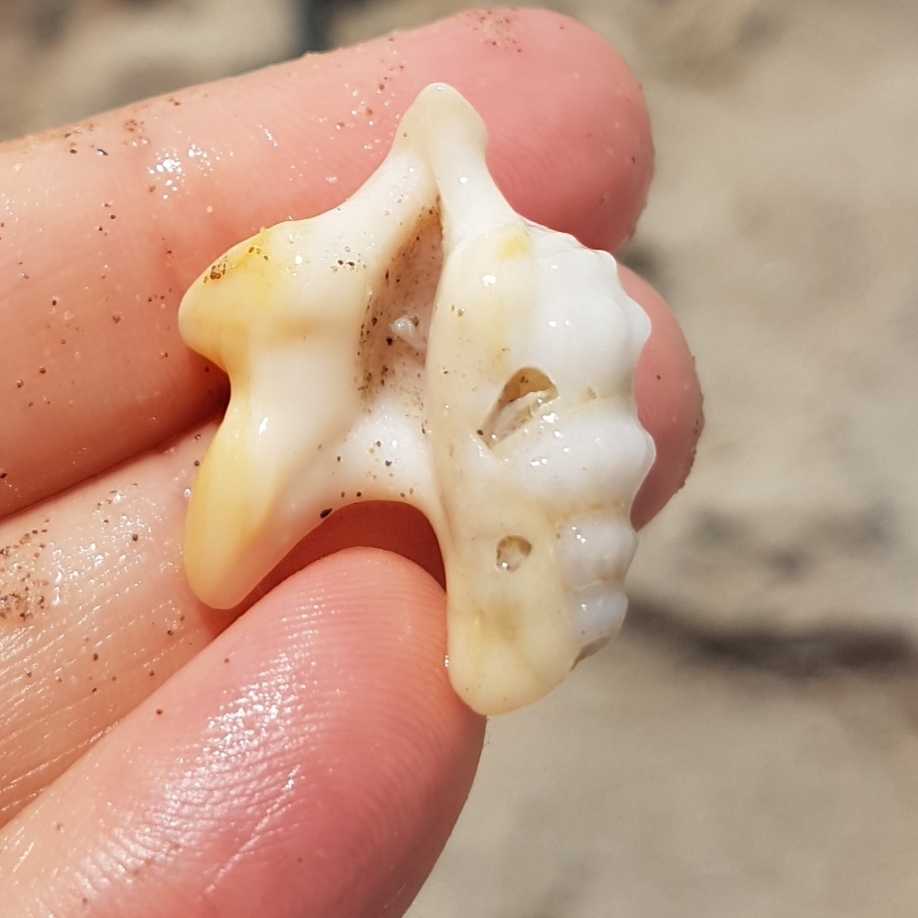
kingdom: Animalia
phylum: Mollusca
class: Gastropoda
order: Littorinimorpha
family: Aporrhaidae
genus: Aporrhais
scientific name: Aporrhais pespelecani
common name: Common pelican’s foot
